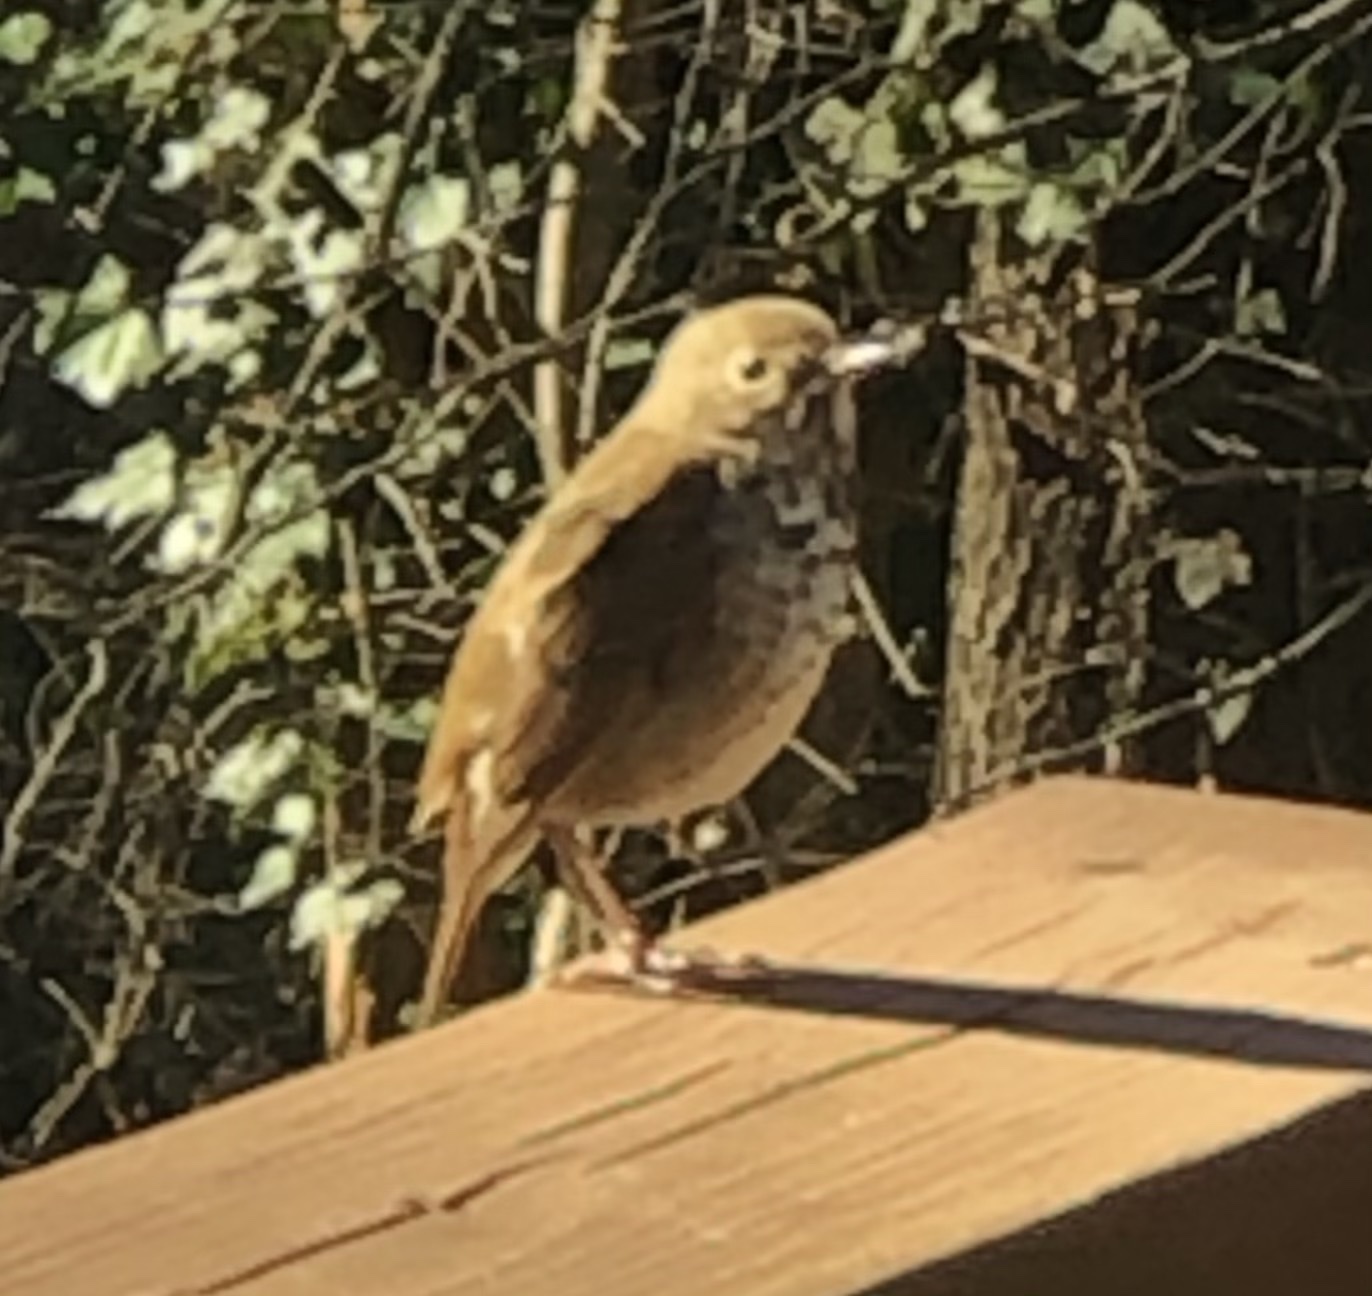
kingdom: Animalia
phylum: Chordata
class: Aves
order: Passeriformes
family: Turdidae
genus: Catharus
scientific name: Catharus guttatus
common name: Hermit thrush
